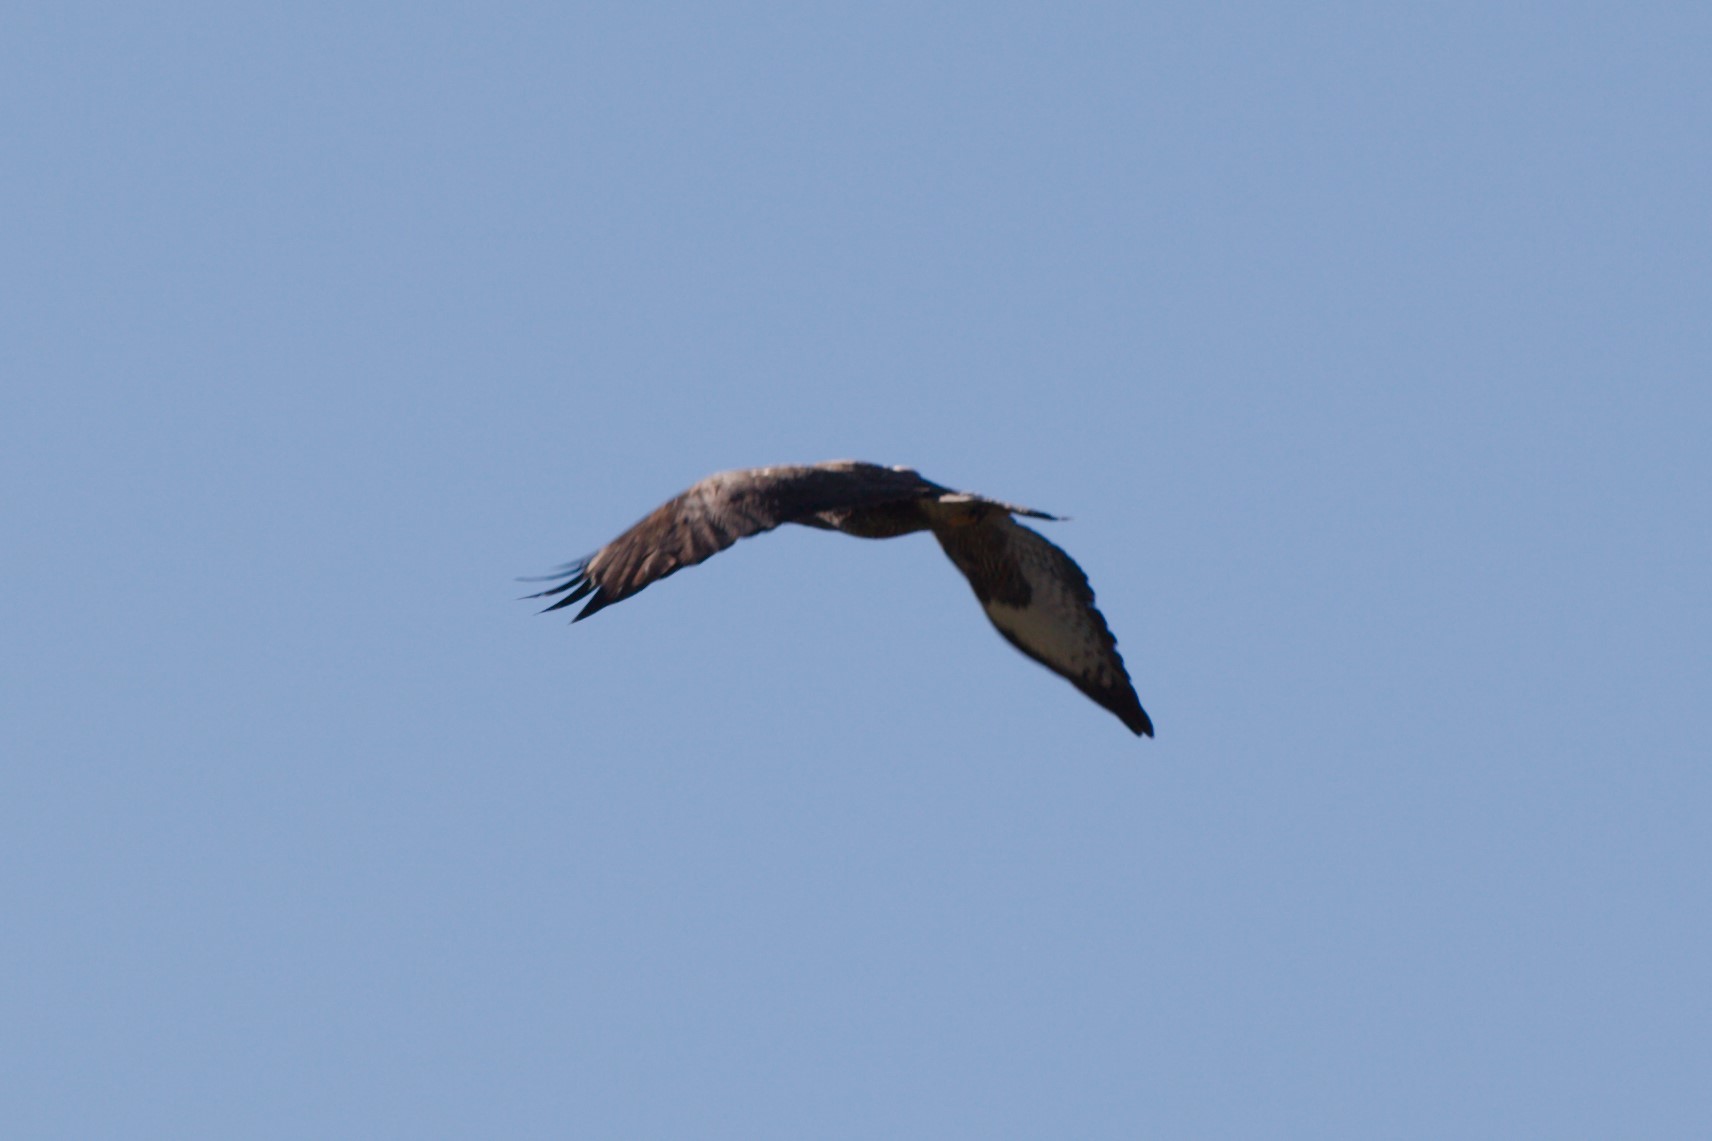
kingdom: Animalia
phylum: Chordata
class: Aves
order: Accipitriformes
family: Accipitridae
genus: Buteo
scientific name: Buteo buteo
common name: Common buzzard
